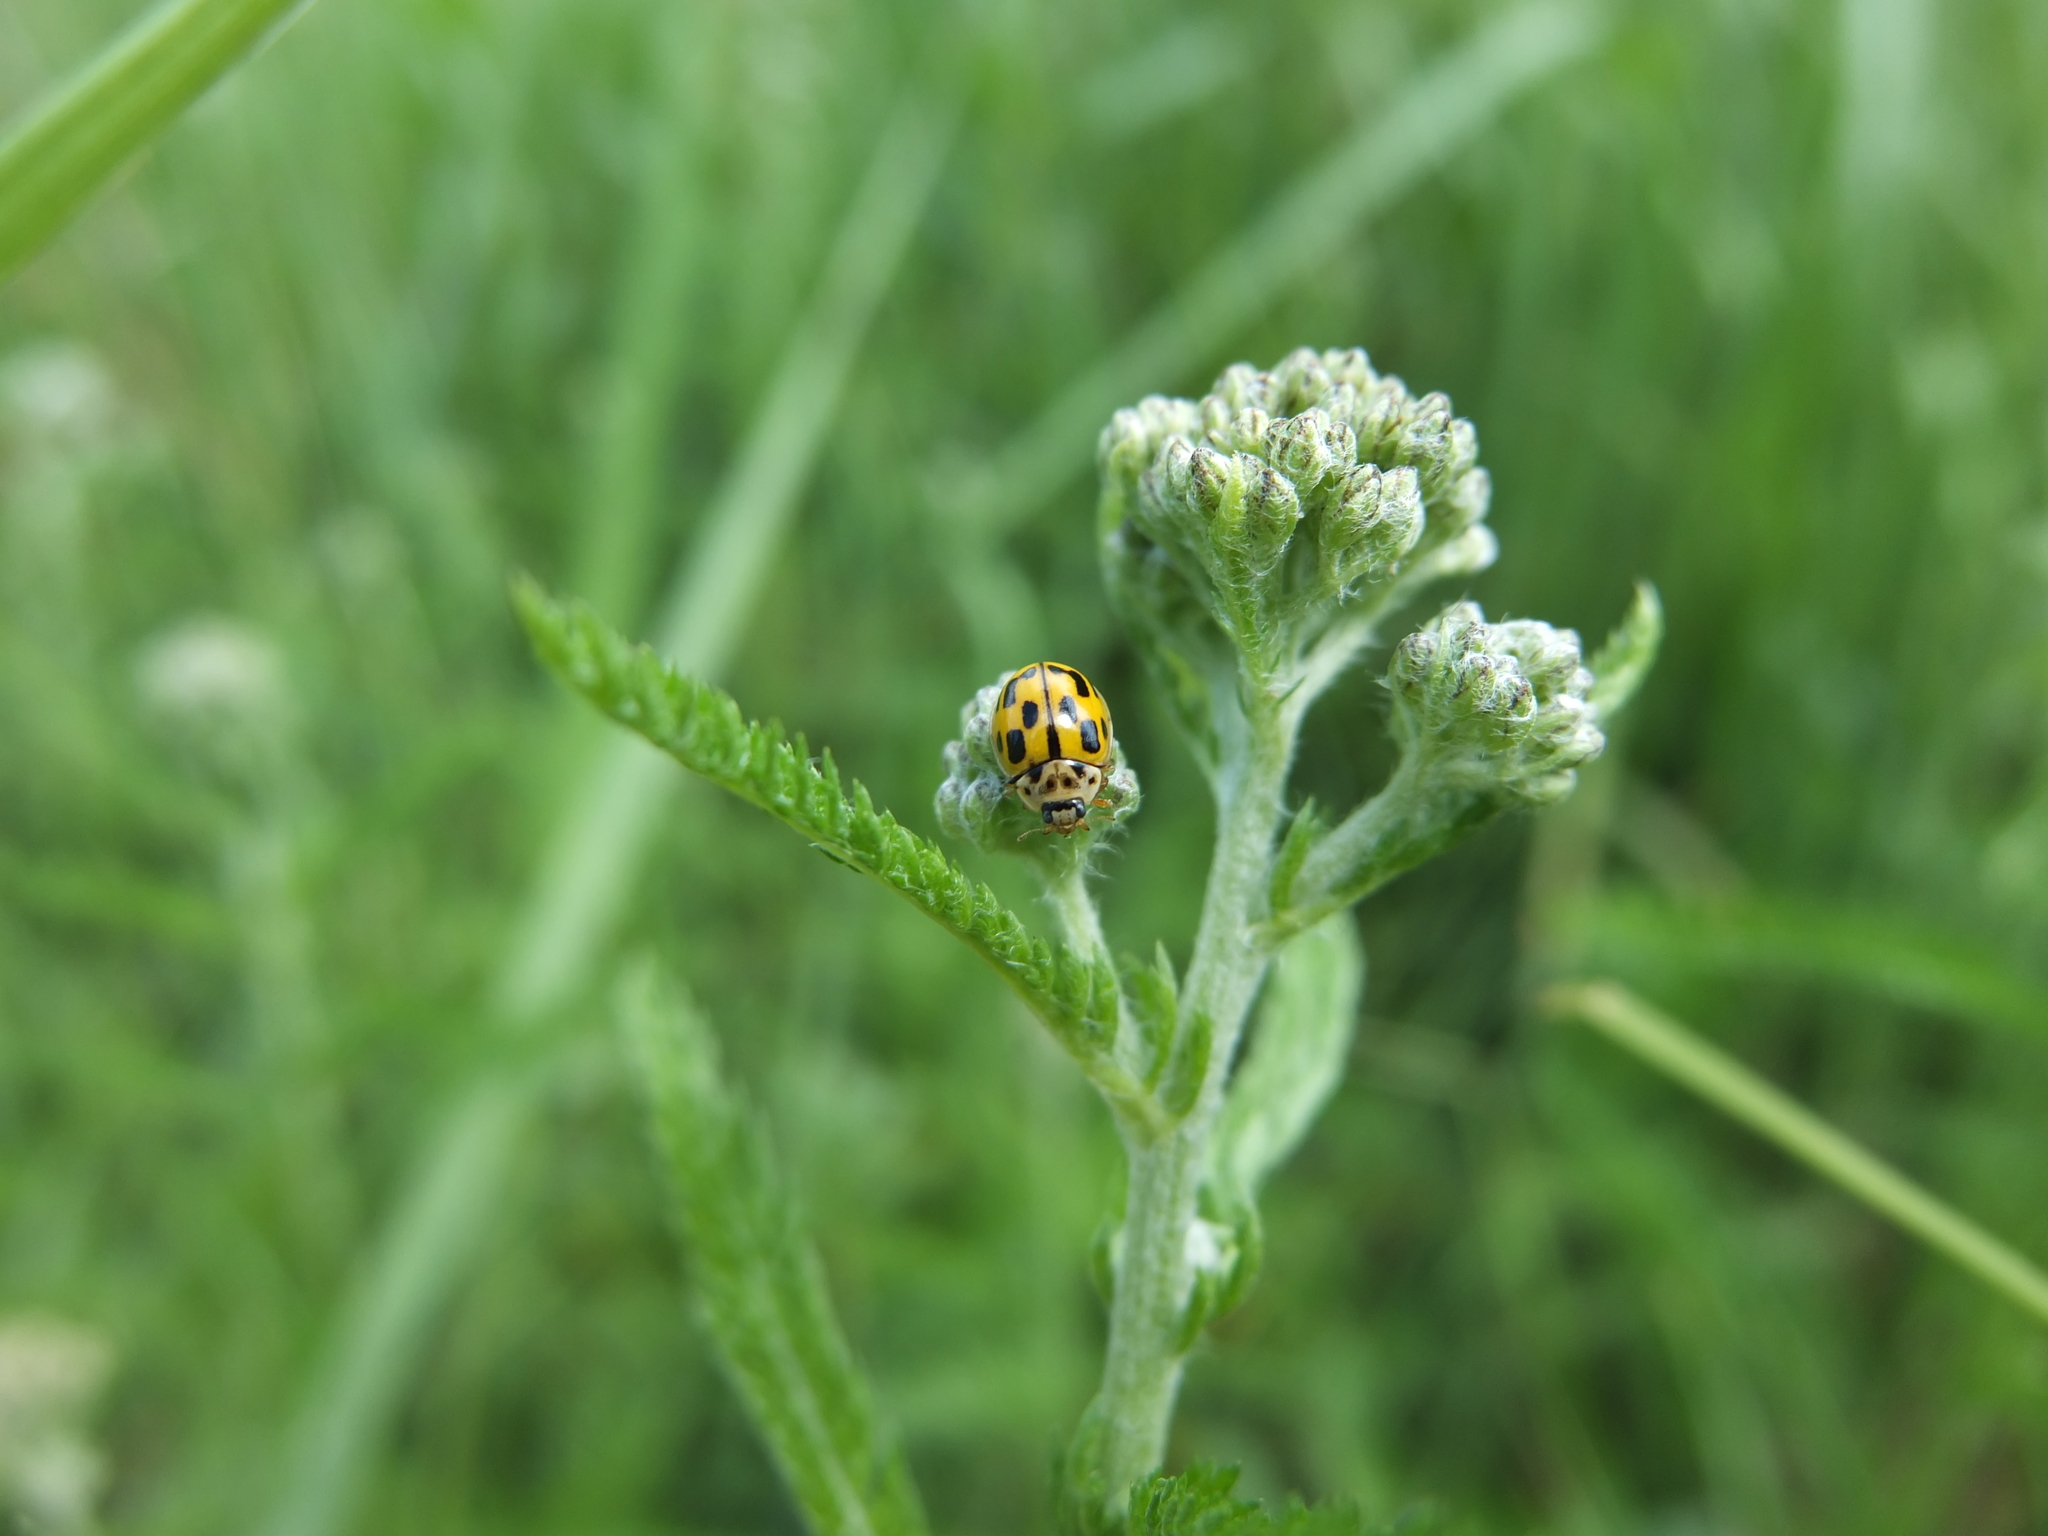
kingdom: Animalia
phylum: Arthropoda
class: Insecta
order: Coleoptera
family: Coccinellidae
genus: Propylaea
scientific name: Propylaea quatuordecimpunctata
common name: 14-spotted ladybird beetle
